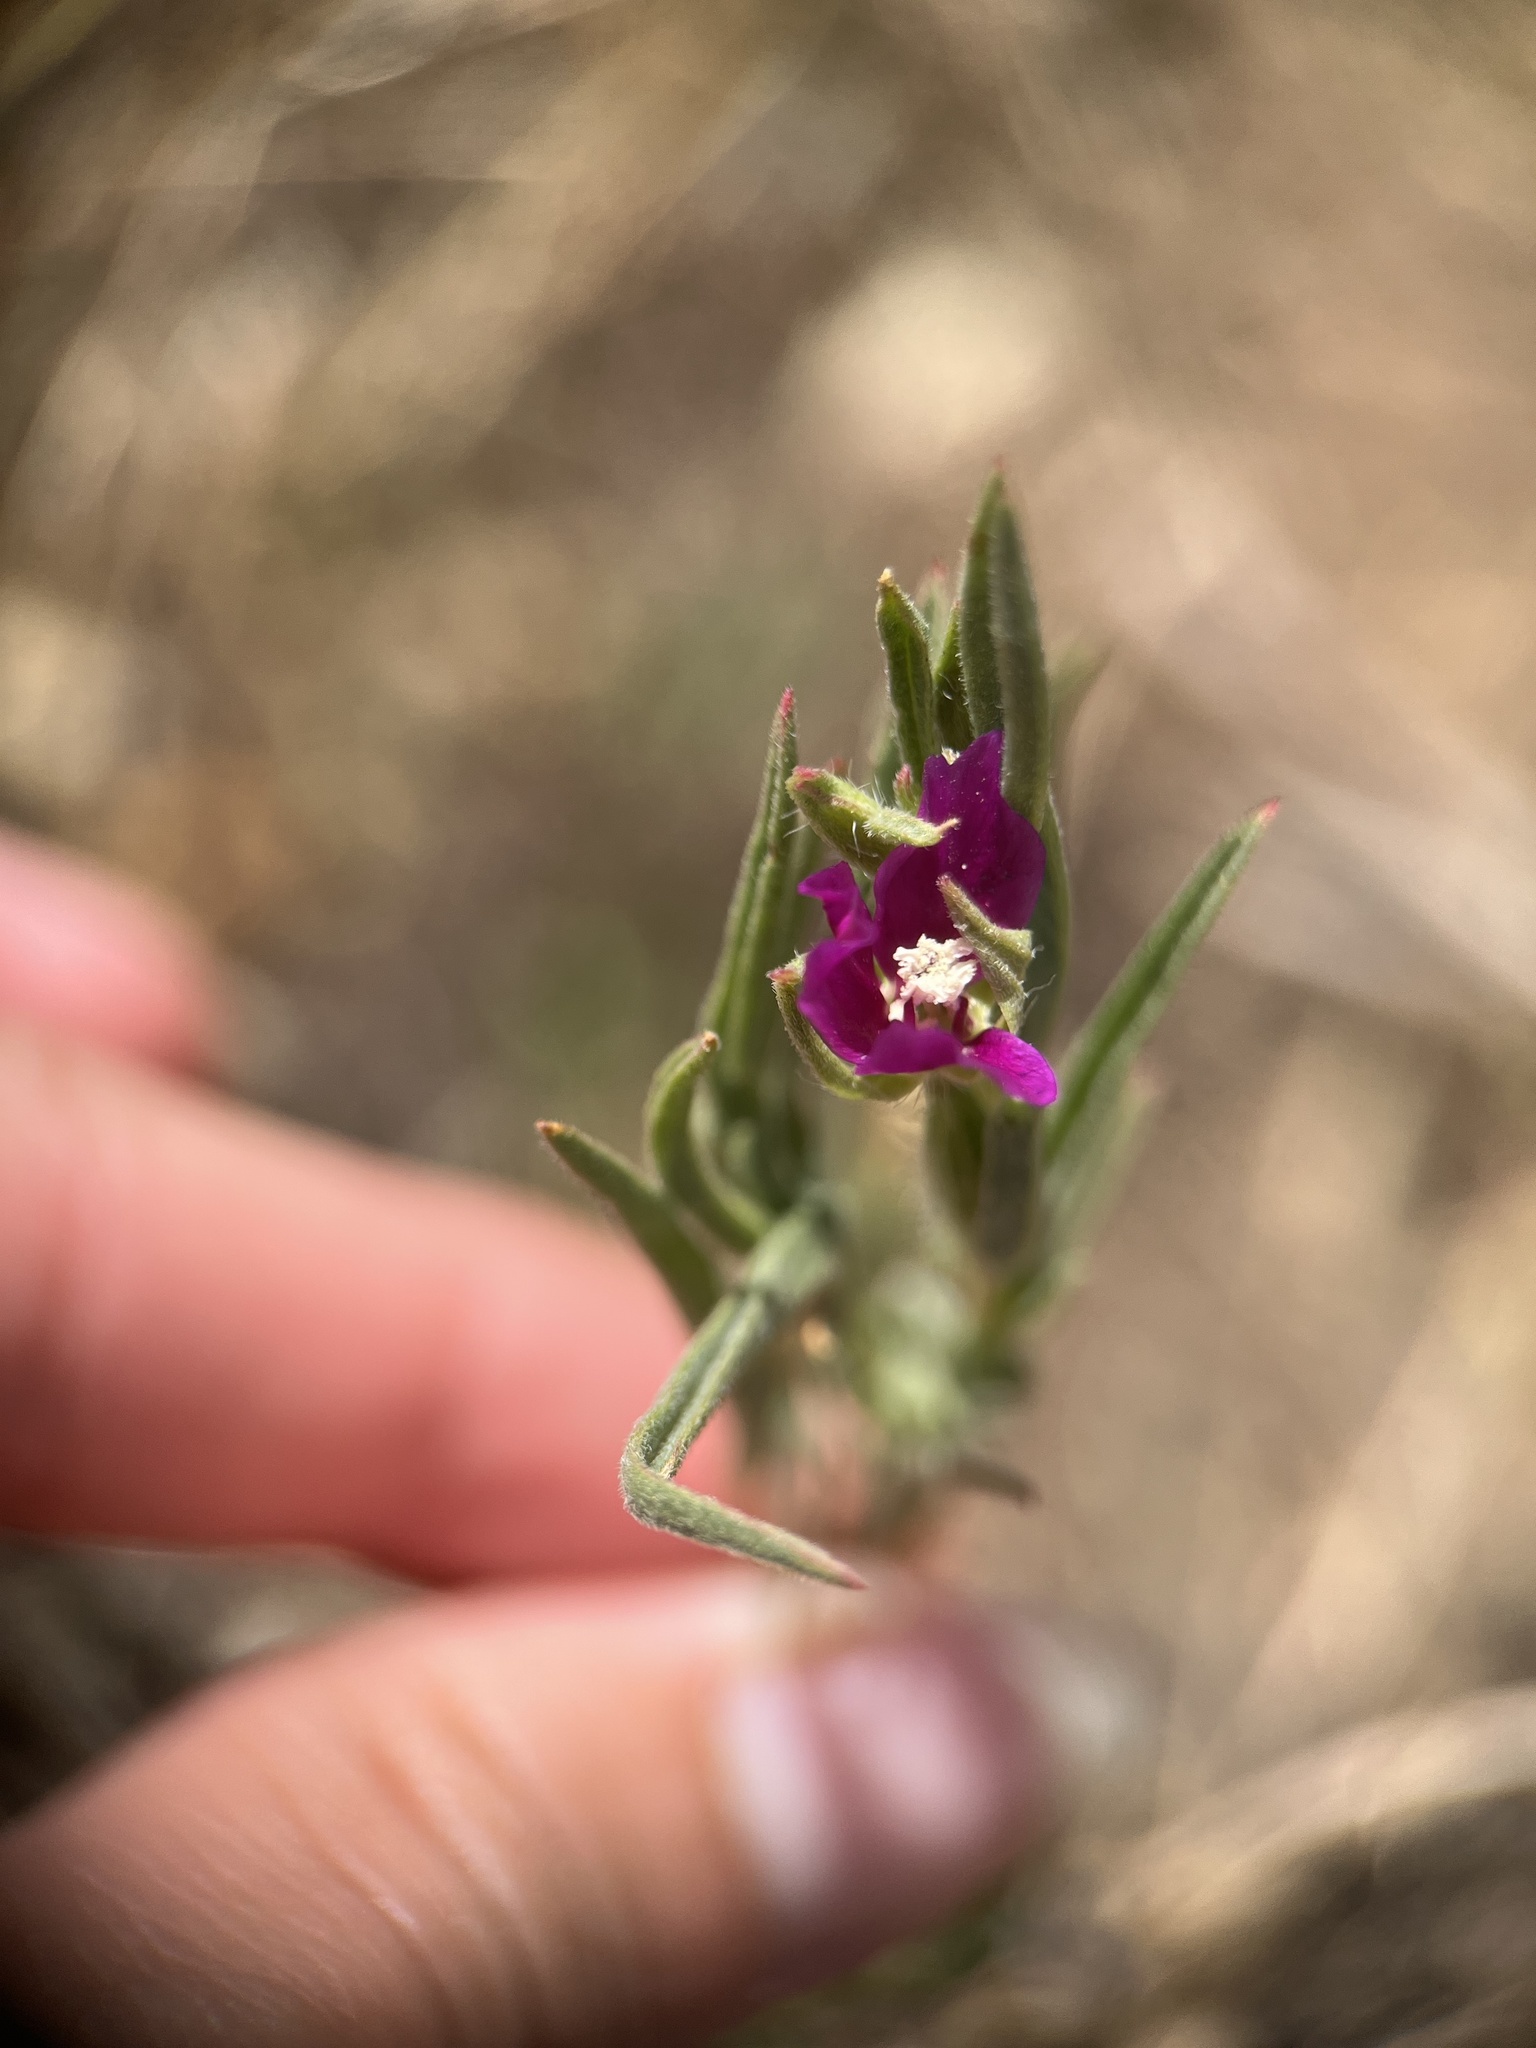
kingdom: Plantae
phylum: Tracheophyta
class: Magnoliopsida
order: Myrtales
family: Onagraceae
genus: Clarkia
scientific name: Clarkia purpurea
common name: Purple clarkia
